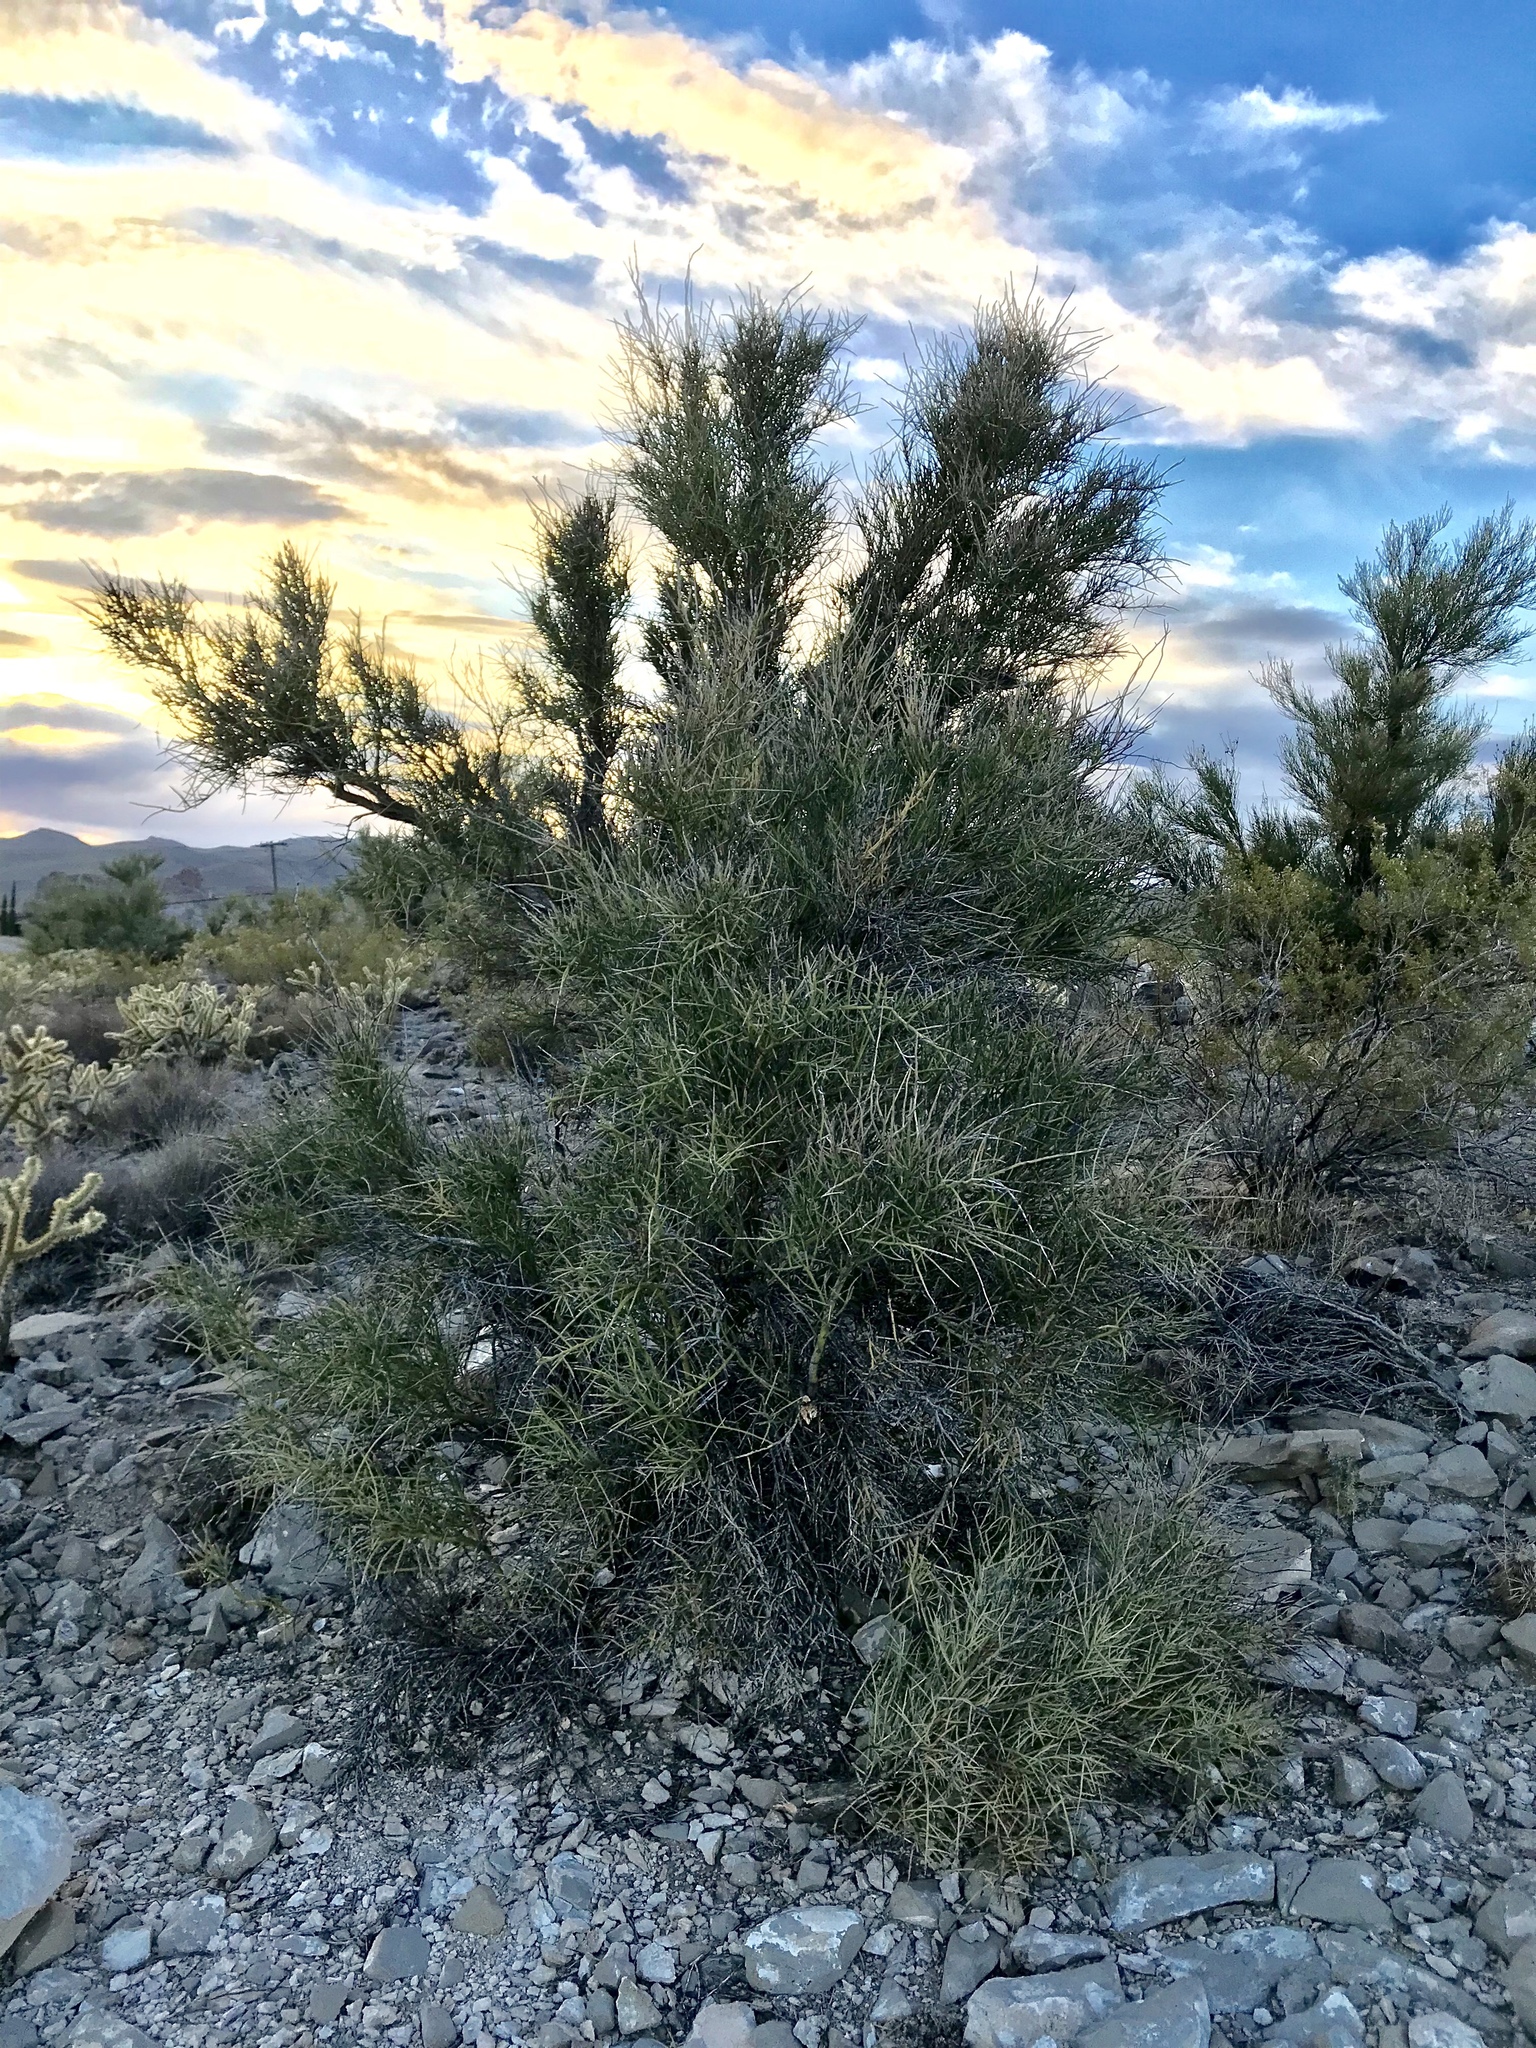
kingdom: Plantae
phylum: Tracheophyta
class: Magnoliopsida
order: Celastrales
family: Celastraceae
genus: Canotia
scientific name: Canotia holacantha
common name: Crucifixion thorns
